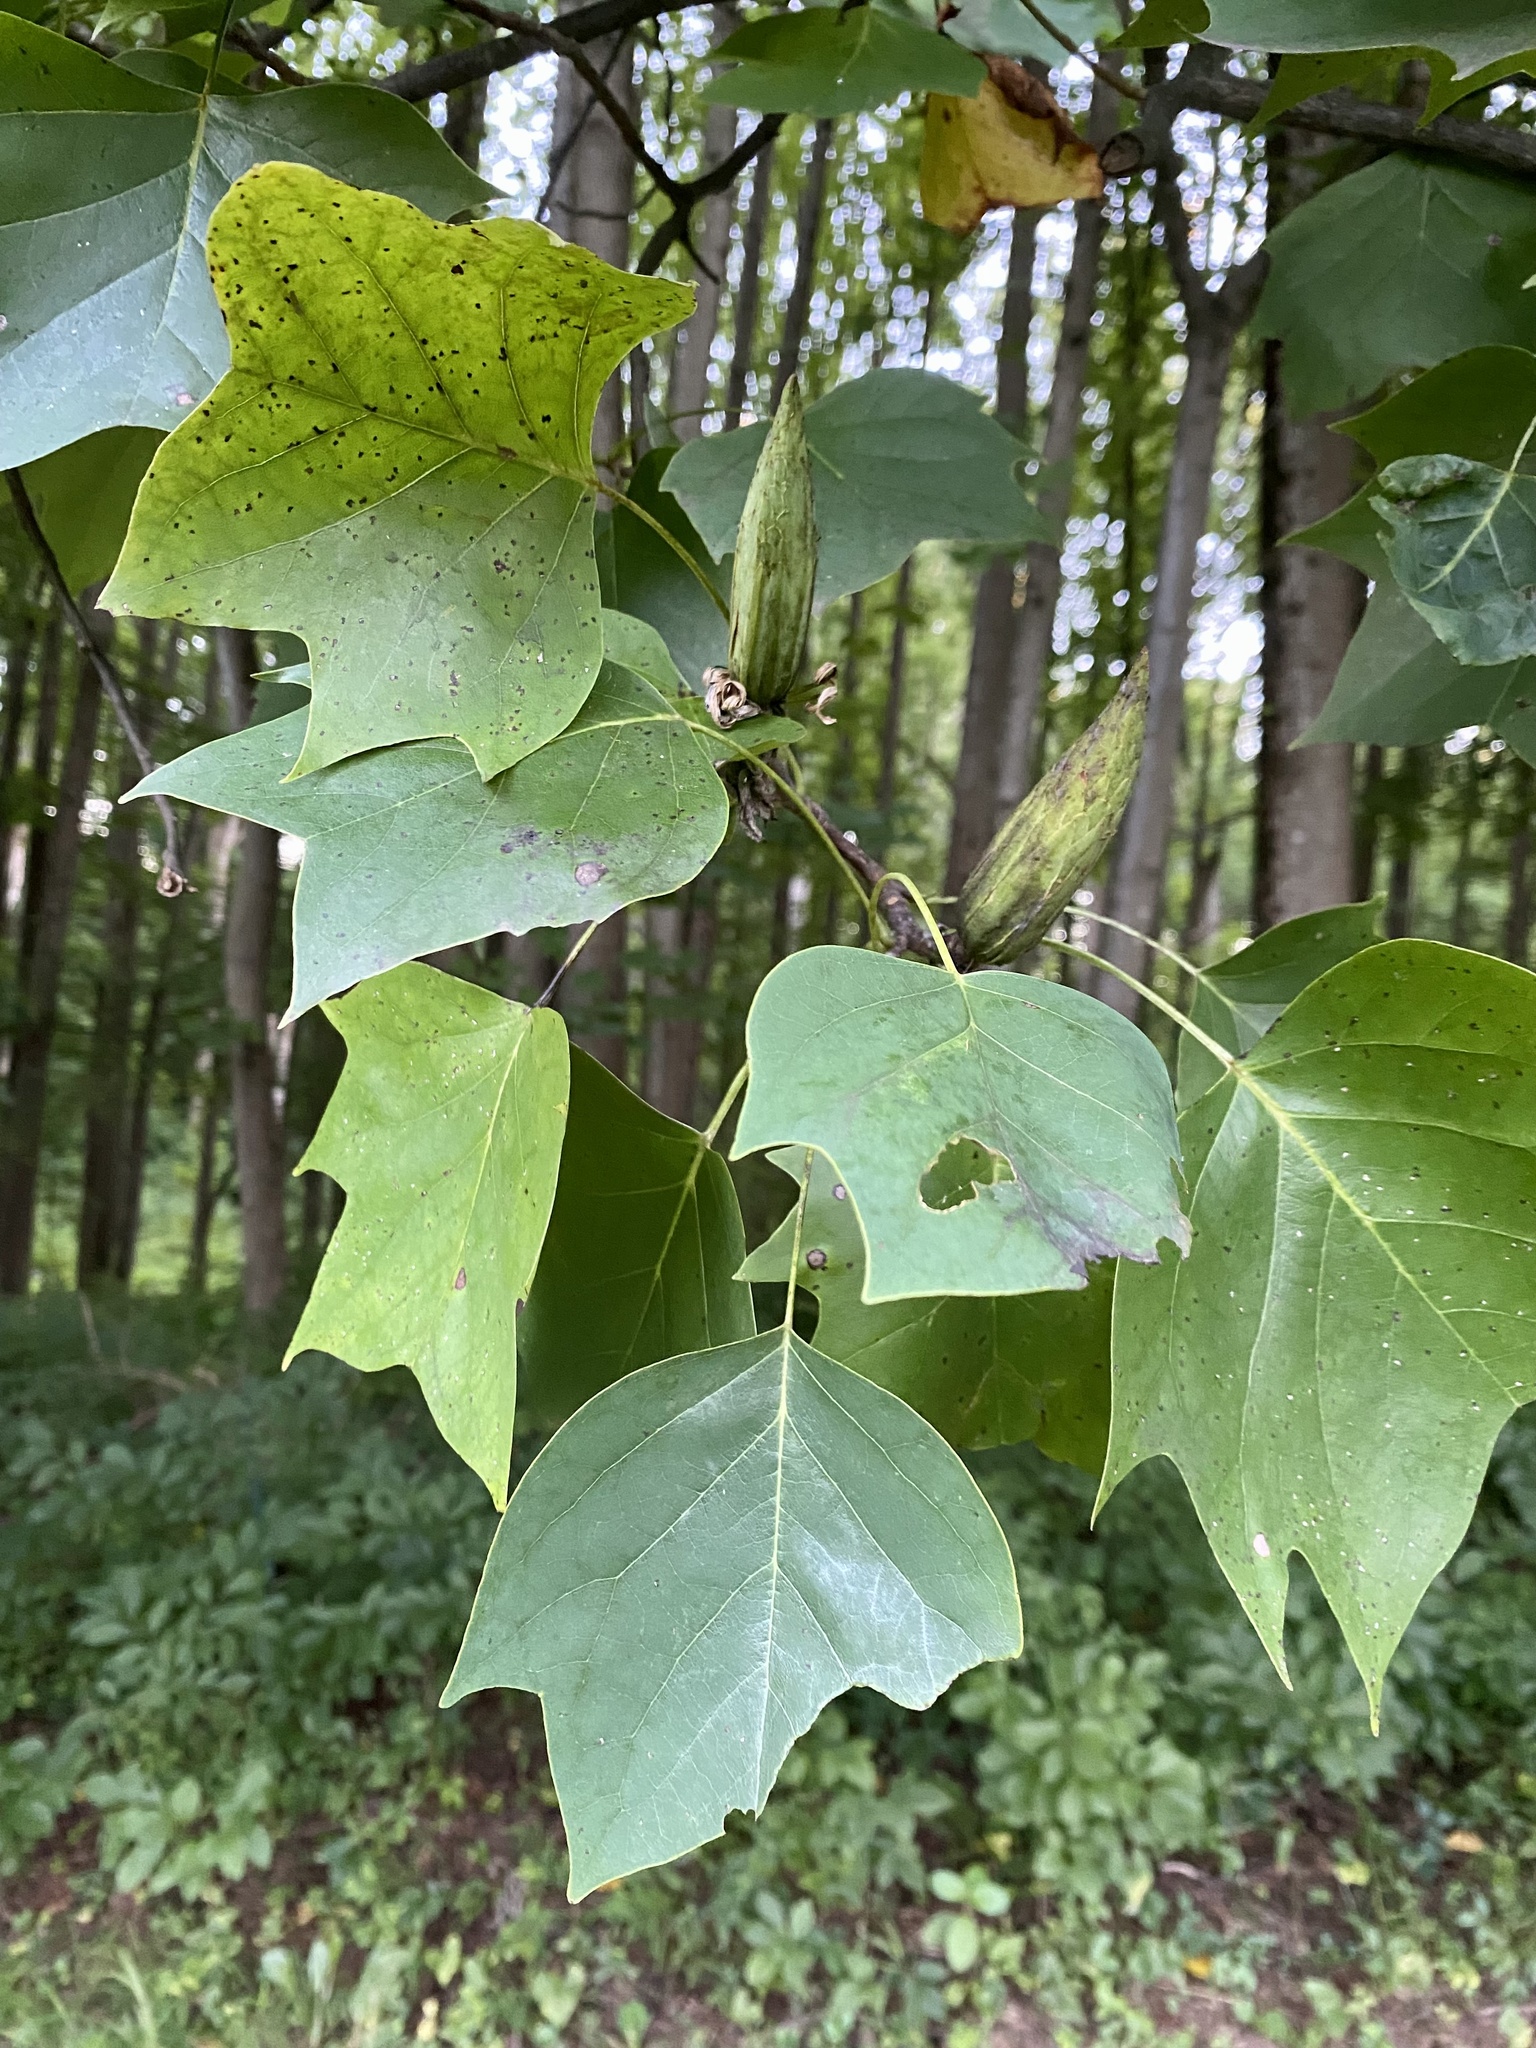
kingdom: Plantae
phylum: Tracheophyta
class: Magnoliopsida
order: Magnoliales
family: Magnoliaceae
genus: Liriodendron
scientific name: Liriodendron tulipifera
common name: Tulip tree
